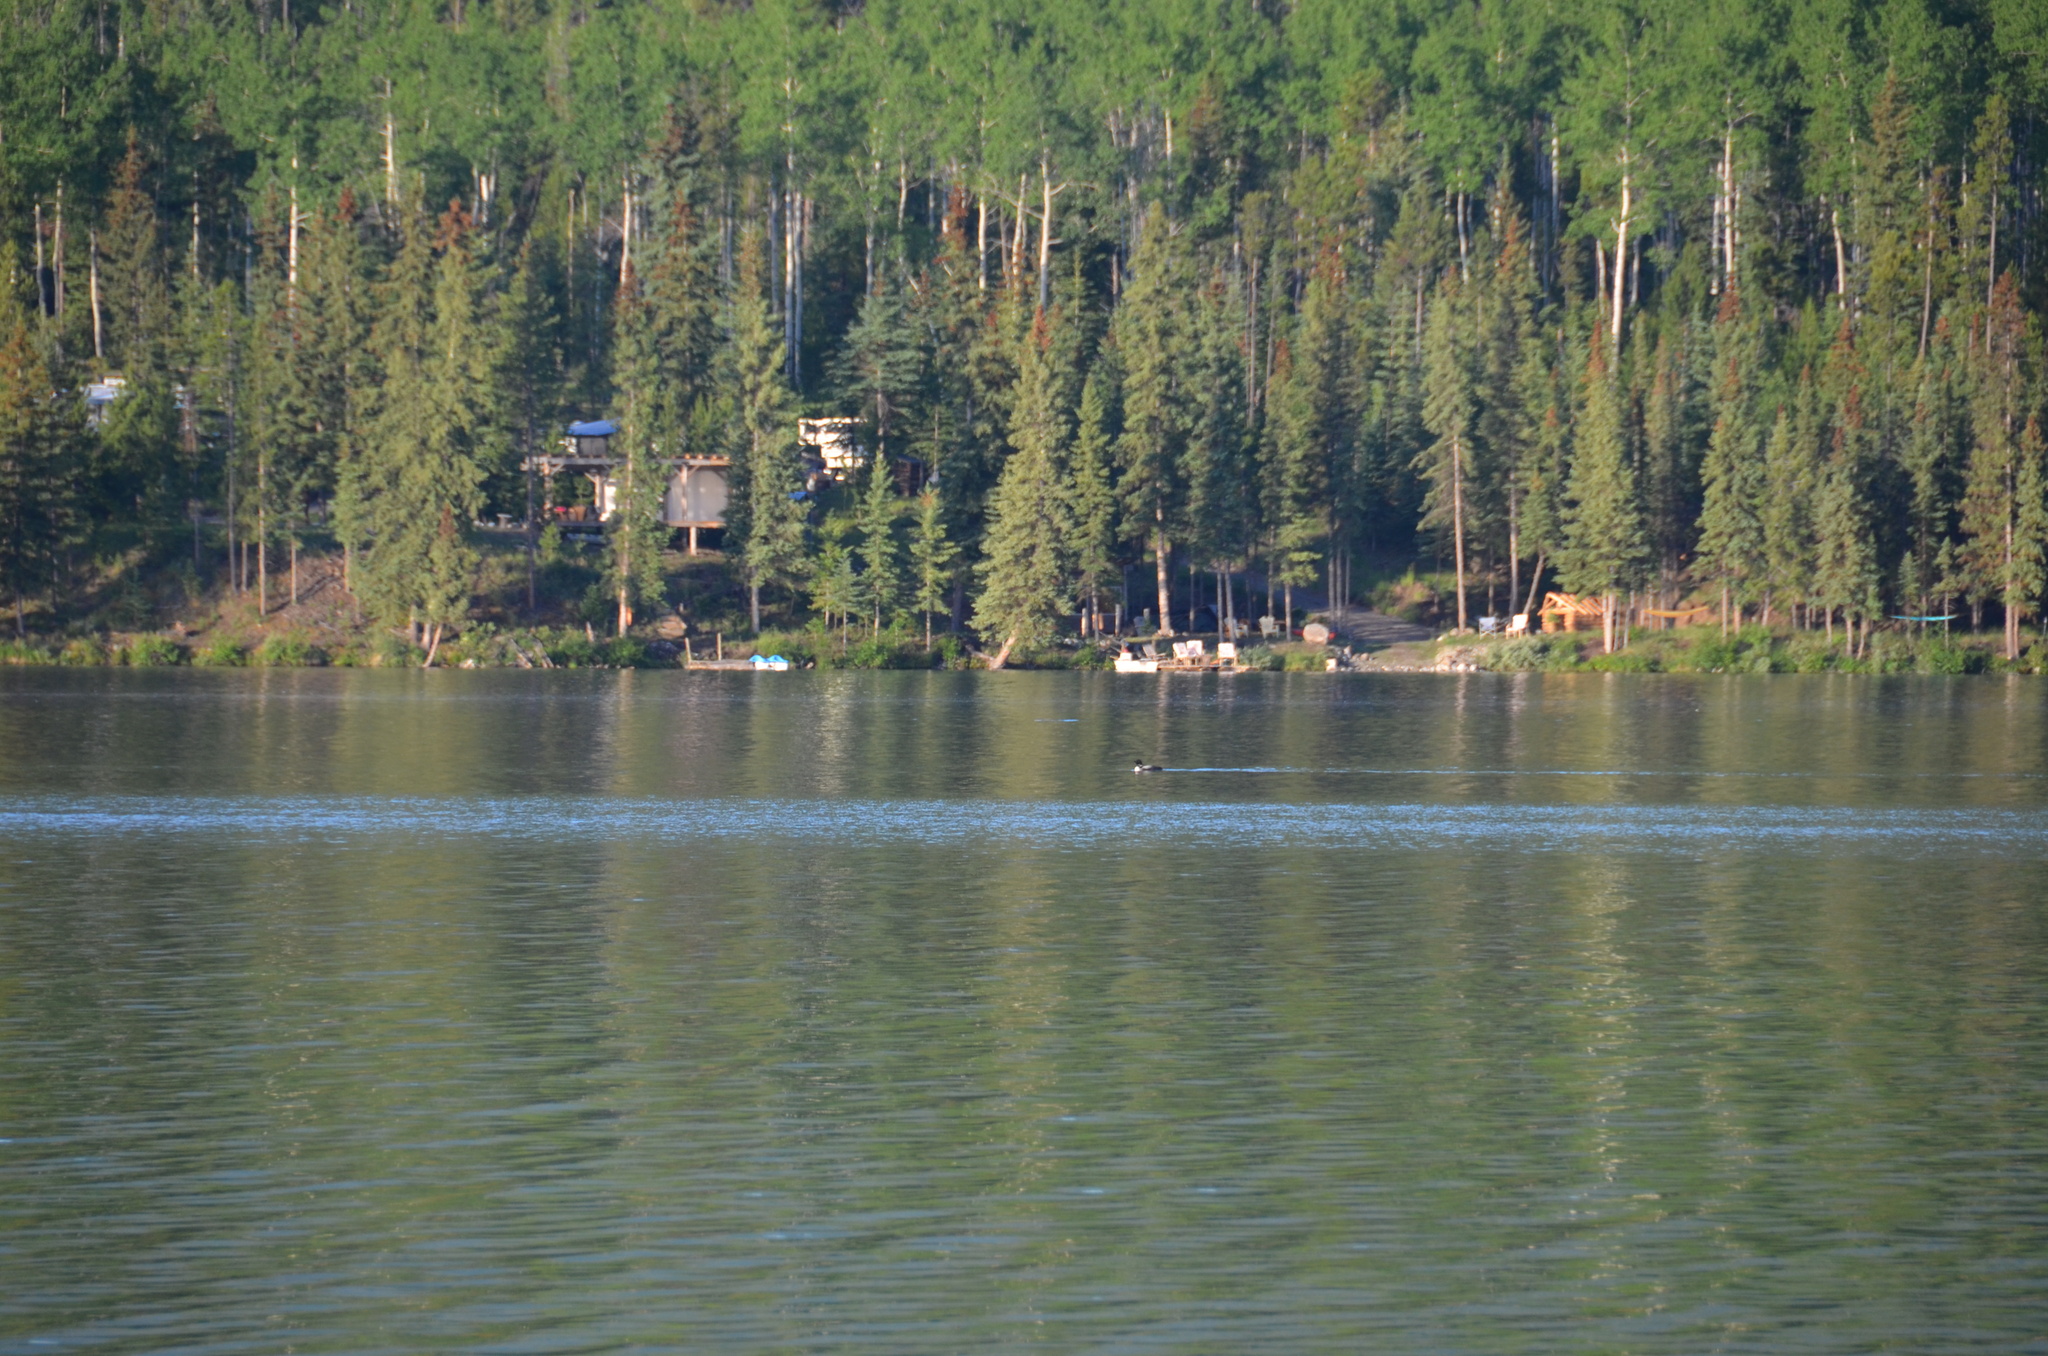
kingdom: Animalia
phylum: Chordata
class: Aves
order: Gaviiformes
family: Gaviidae
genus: Gavia
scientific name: Gavia immer
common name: Common loon
